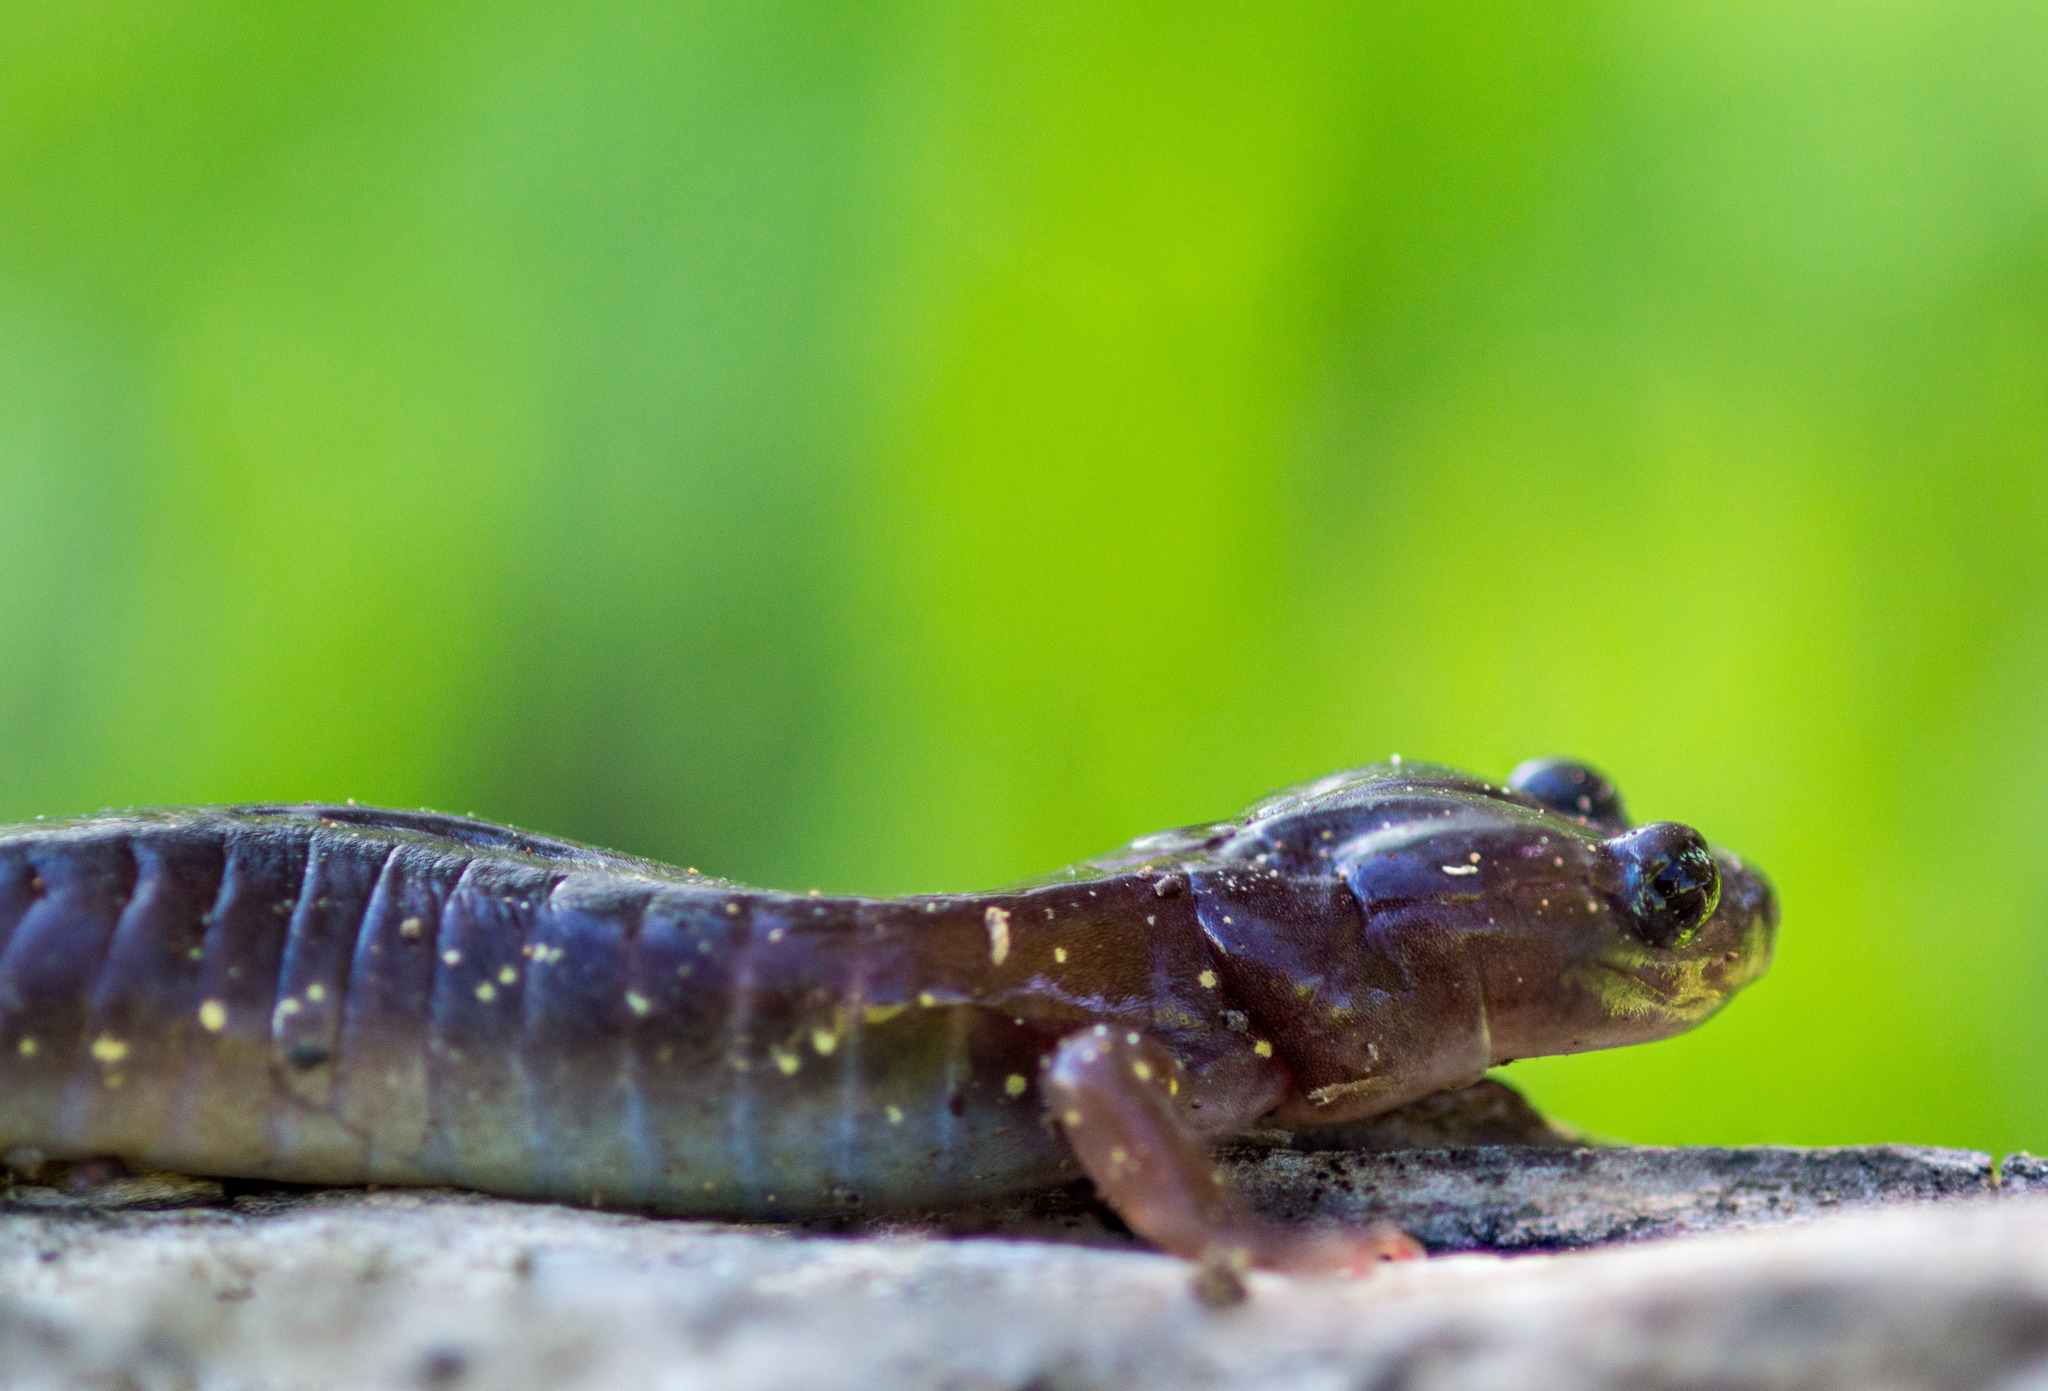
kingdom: Animalia
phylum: Chordata
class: Amphibia
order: Caudata
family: Plethodontidae
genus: Aneides
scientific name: Aneides lugubris
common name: Arboreal salamander
